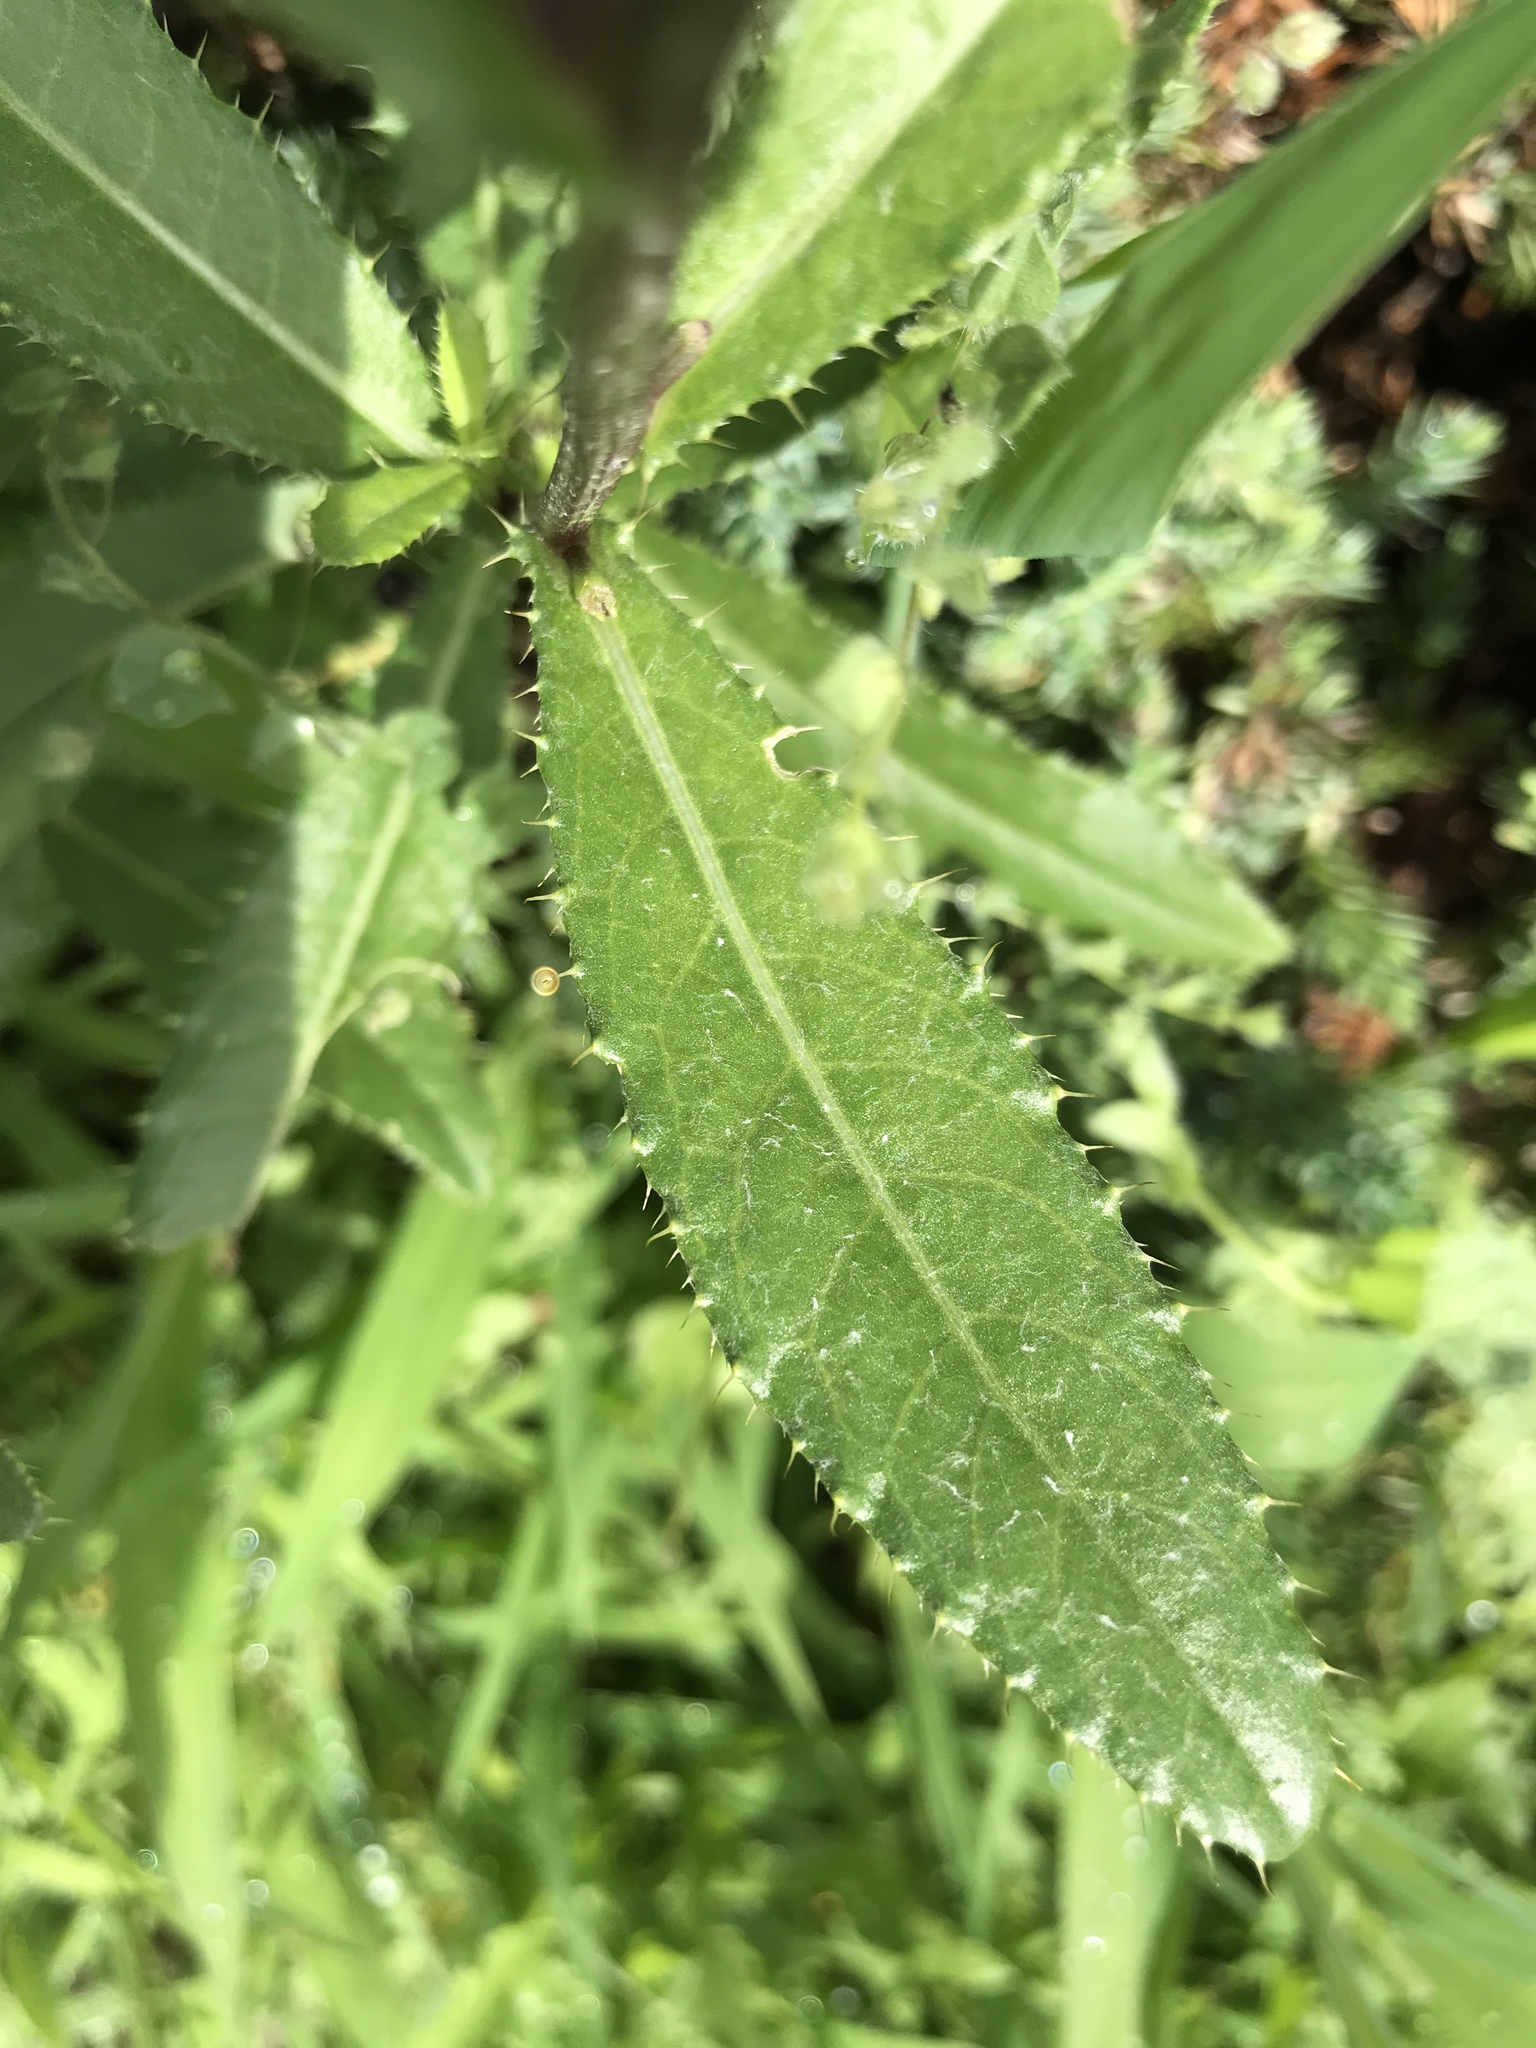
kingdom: Plantae
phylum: Tracheophyta
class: Magnoliopsida
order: Asterales
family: Asteraceae
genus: Cirsium
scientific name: Cirsium arvense
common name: Creeping thistle
